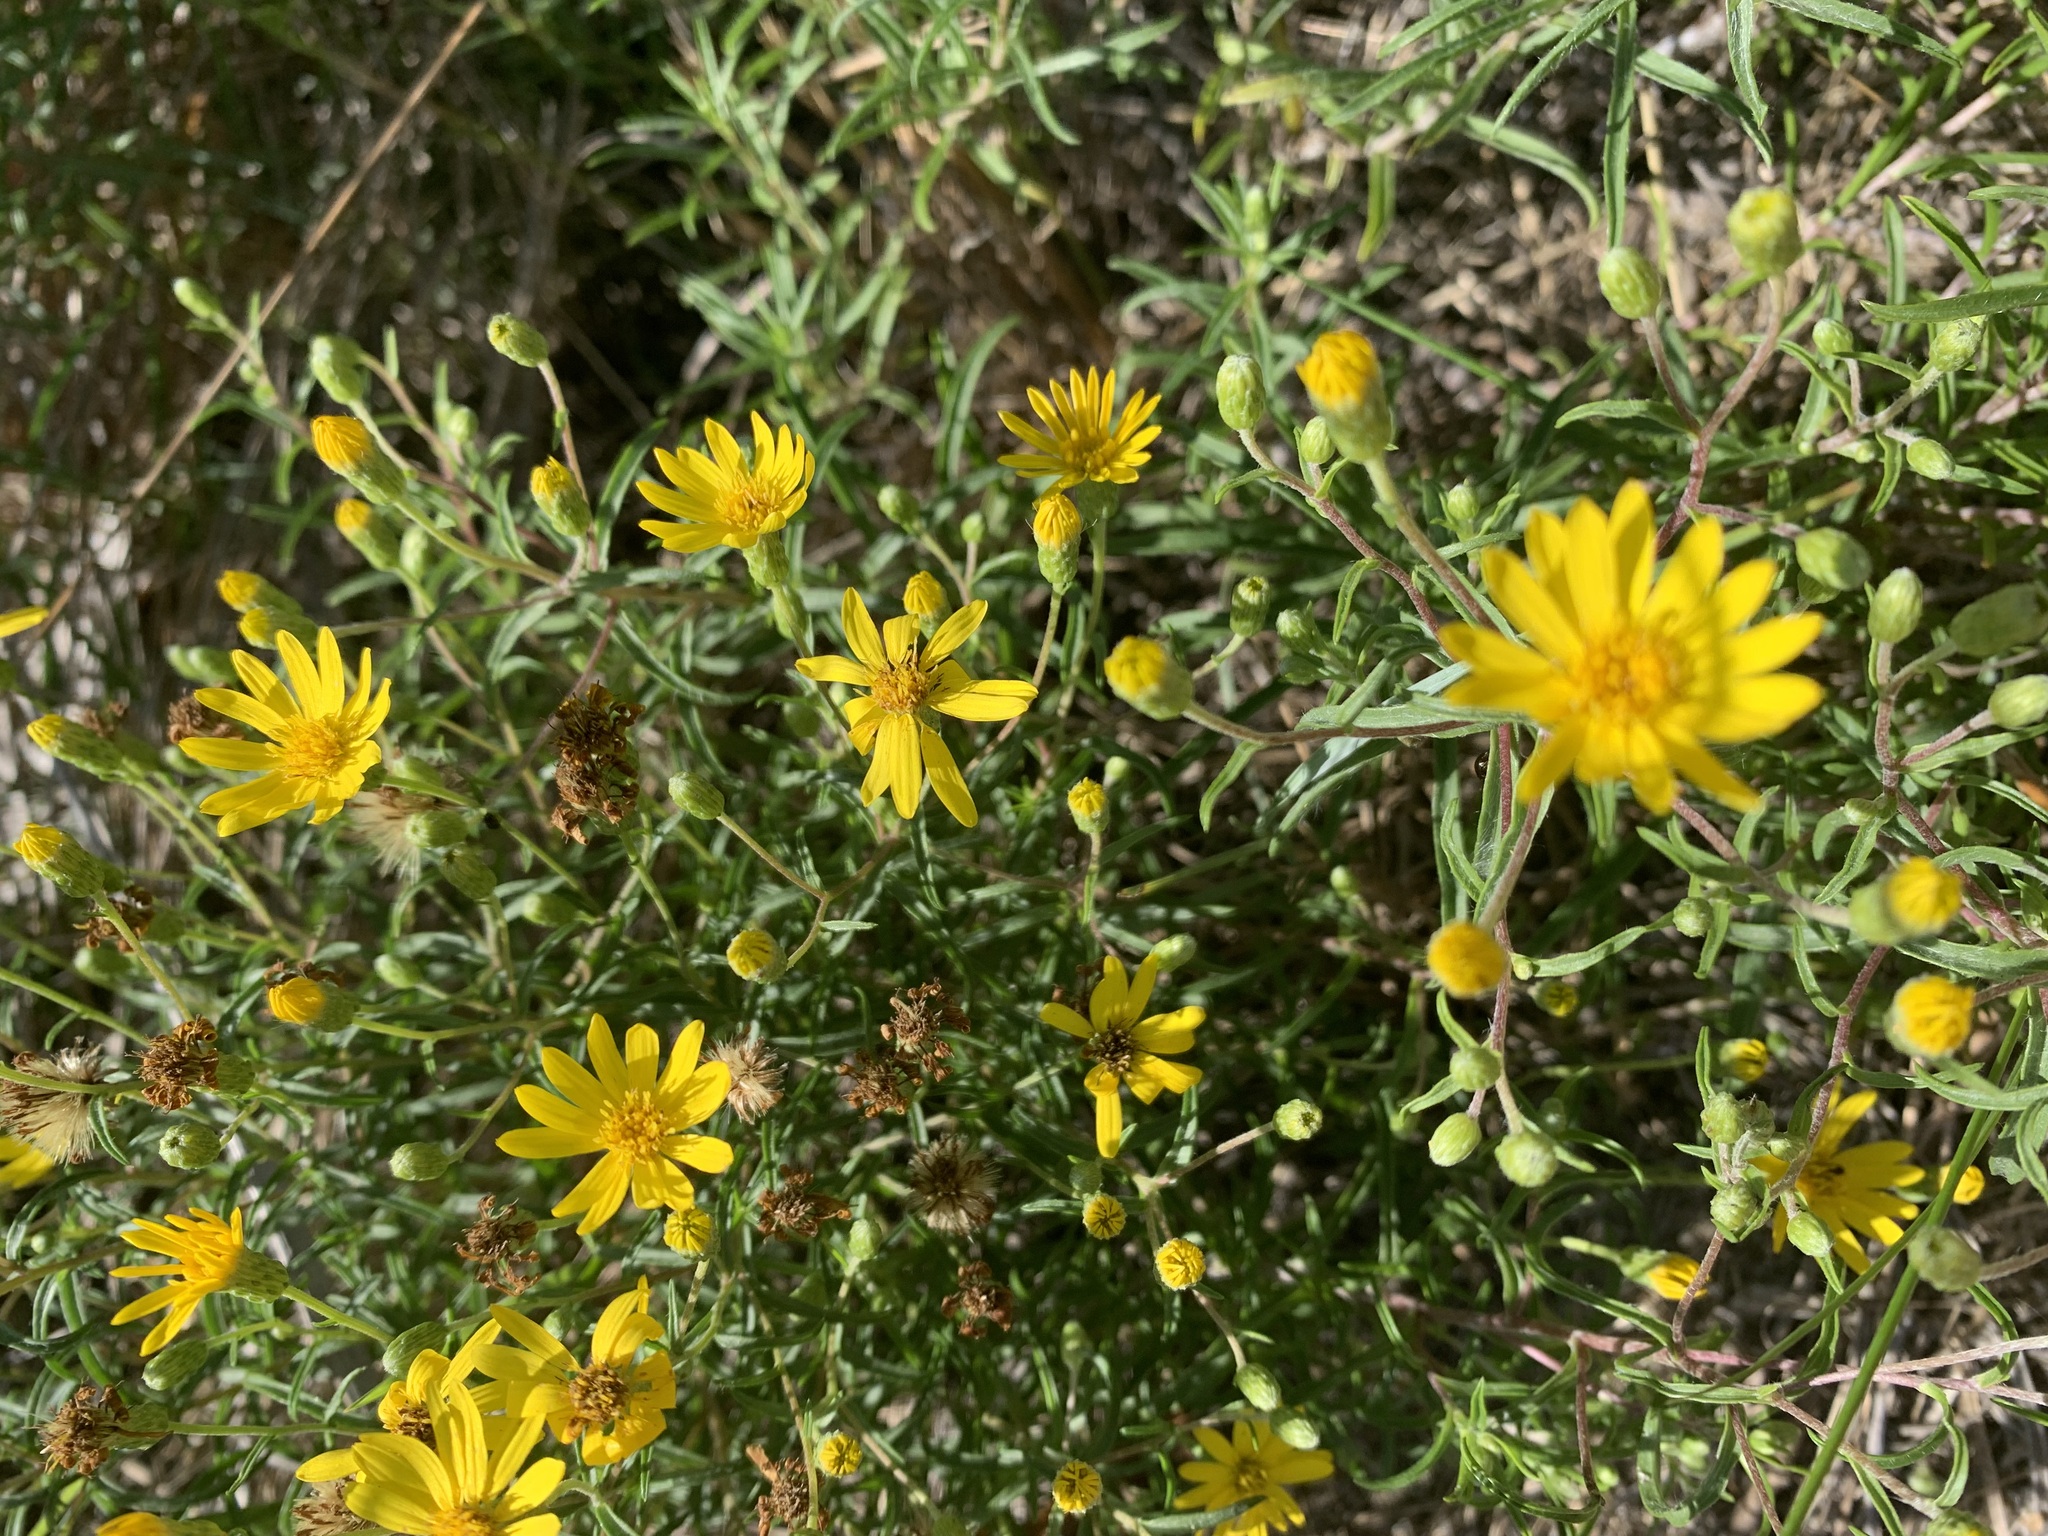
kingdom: Plantae
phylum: Tracheophyta
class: Magnoliopsida
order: Asterales
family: Asteraceae
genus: Pityopsis
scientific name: Pityopsis falcata
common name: Sickle-leaved goldenaster
